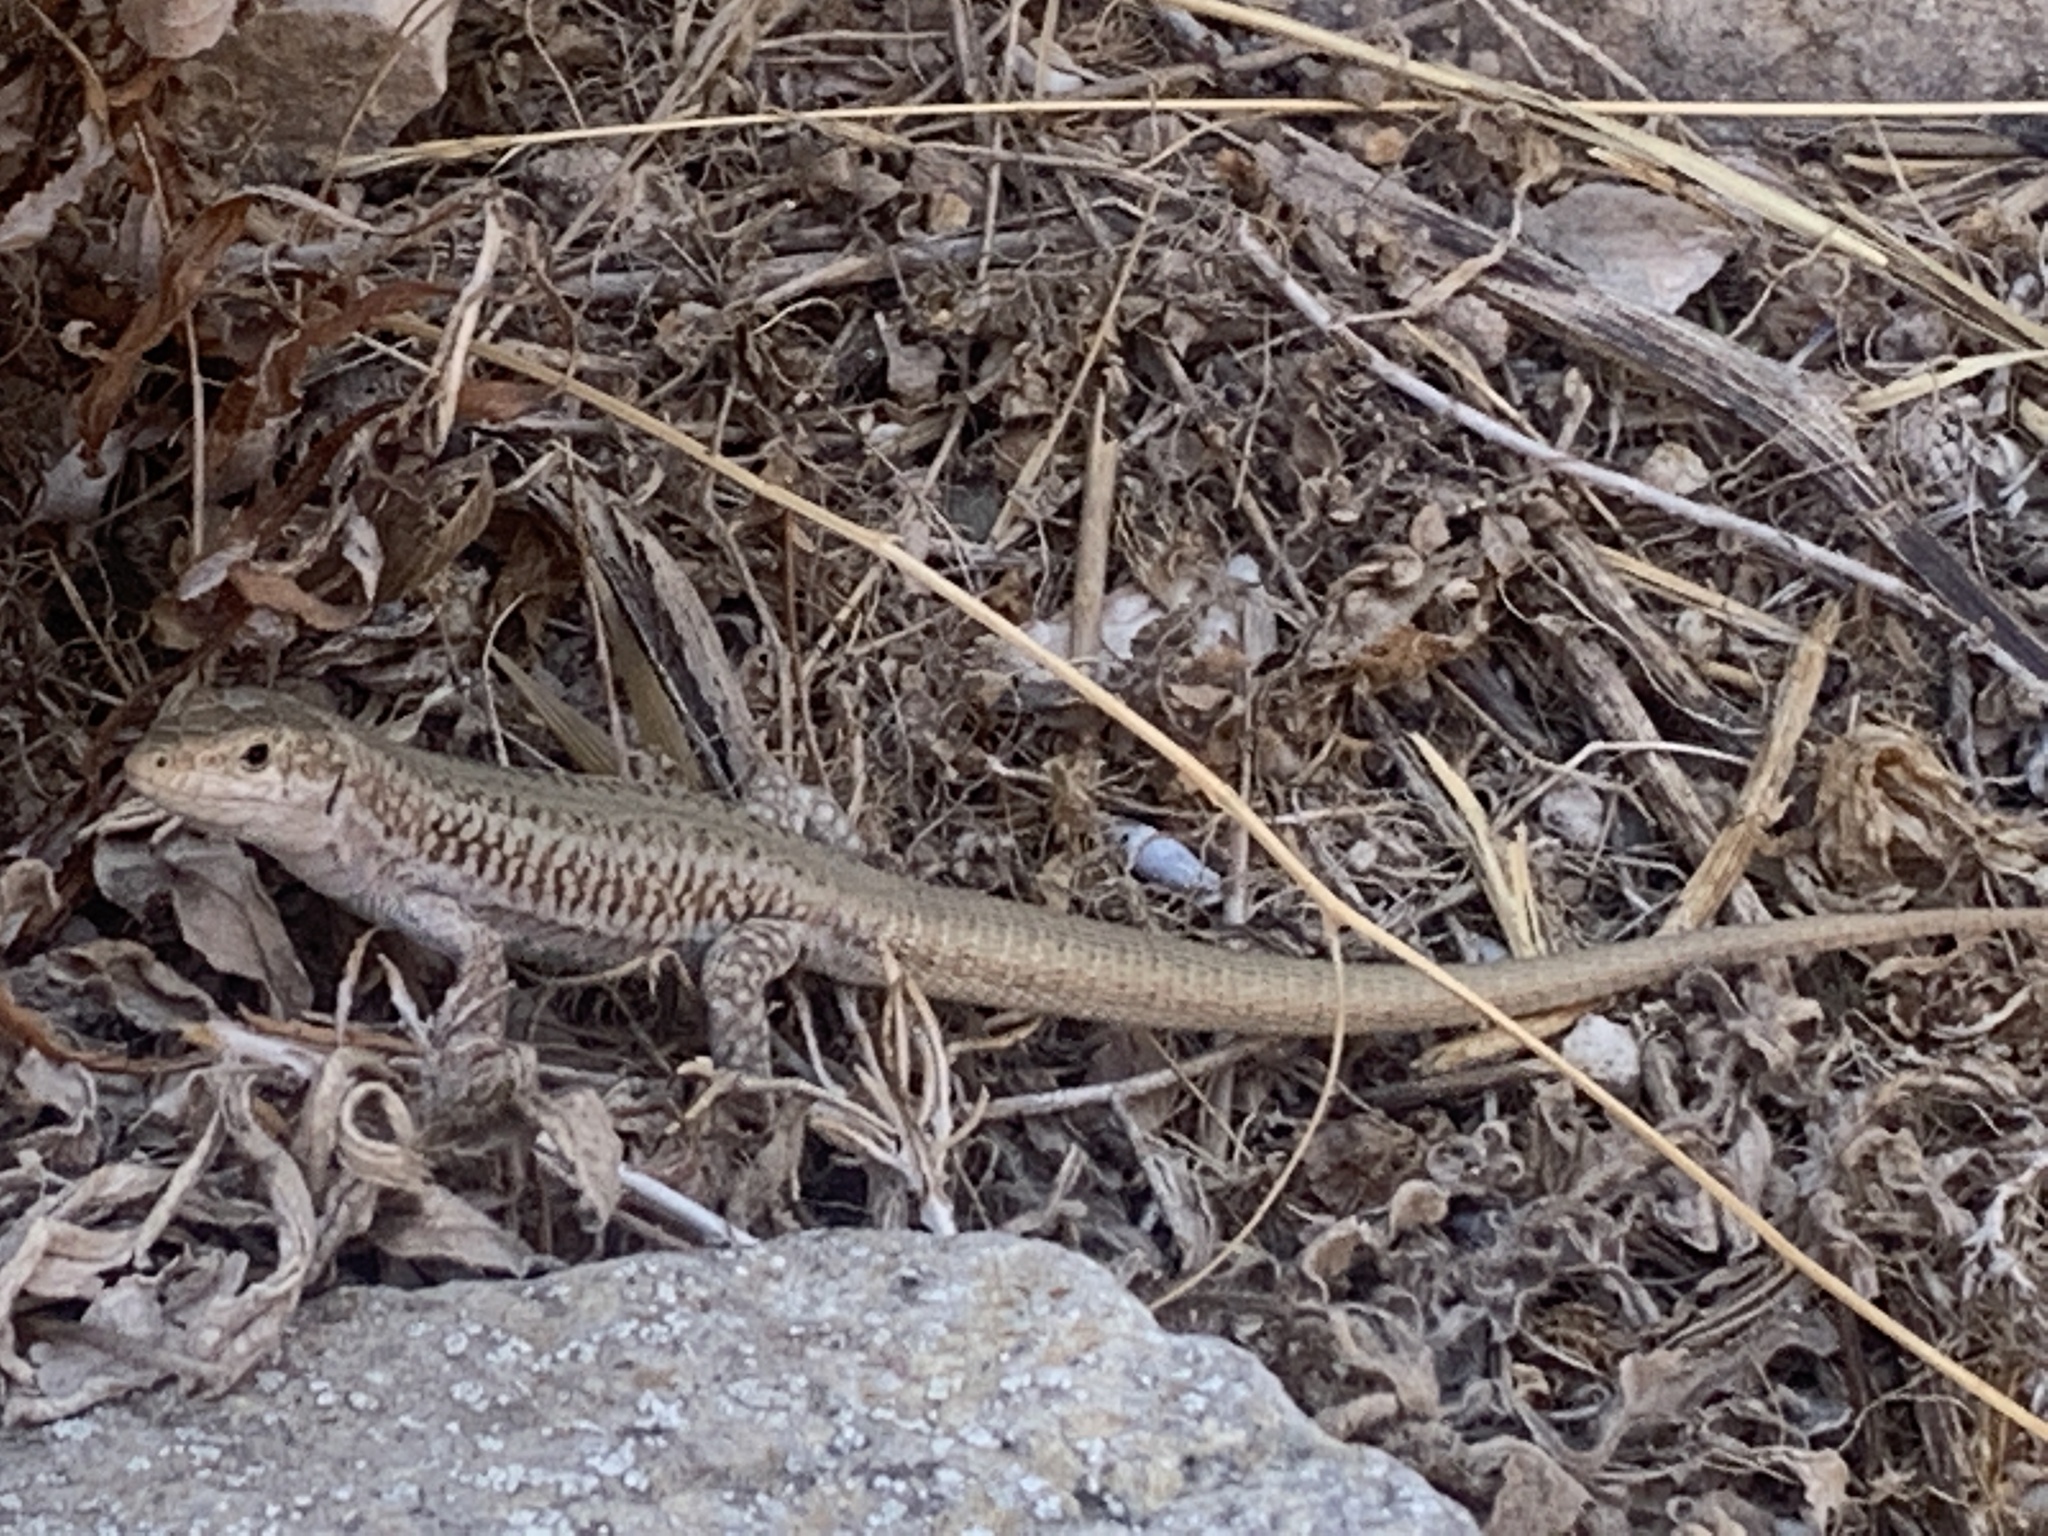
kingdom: Animalia
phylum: Chordata
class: Squamata
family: Lacertidae
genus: Podarcis
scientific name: Podarcis erhardii
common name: Erhard's wall lizard
